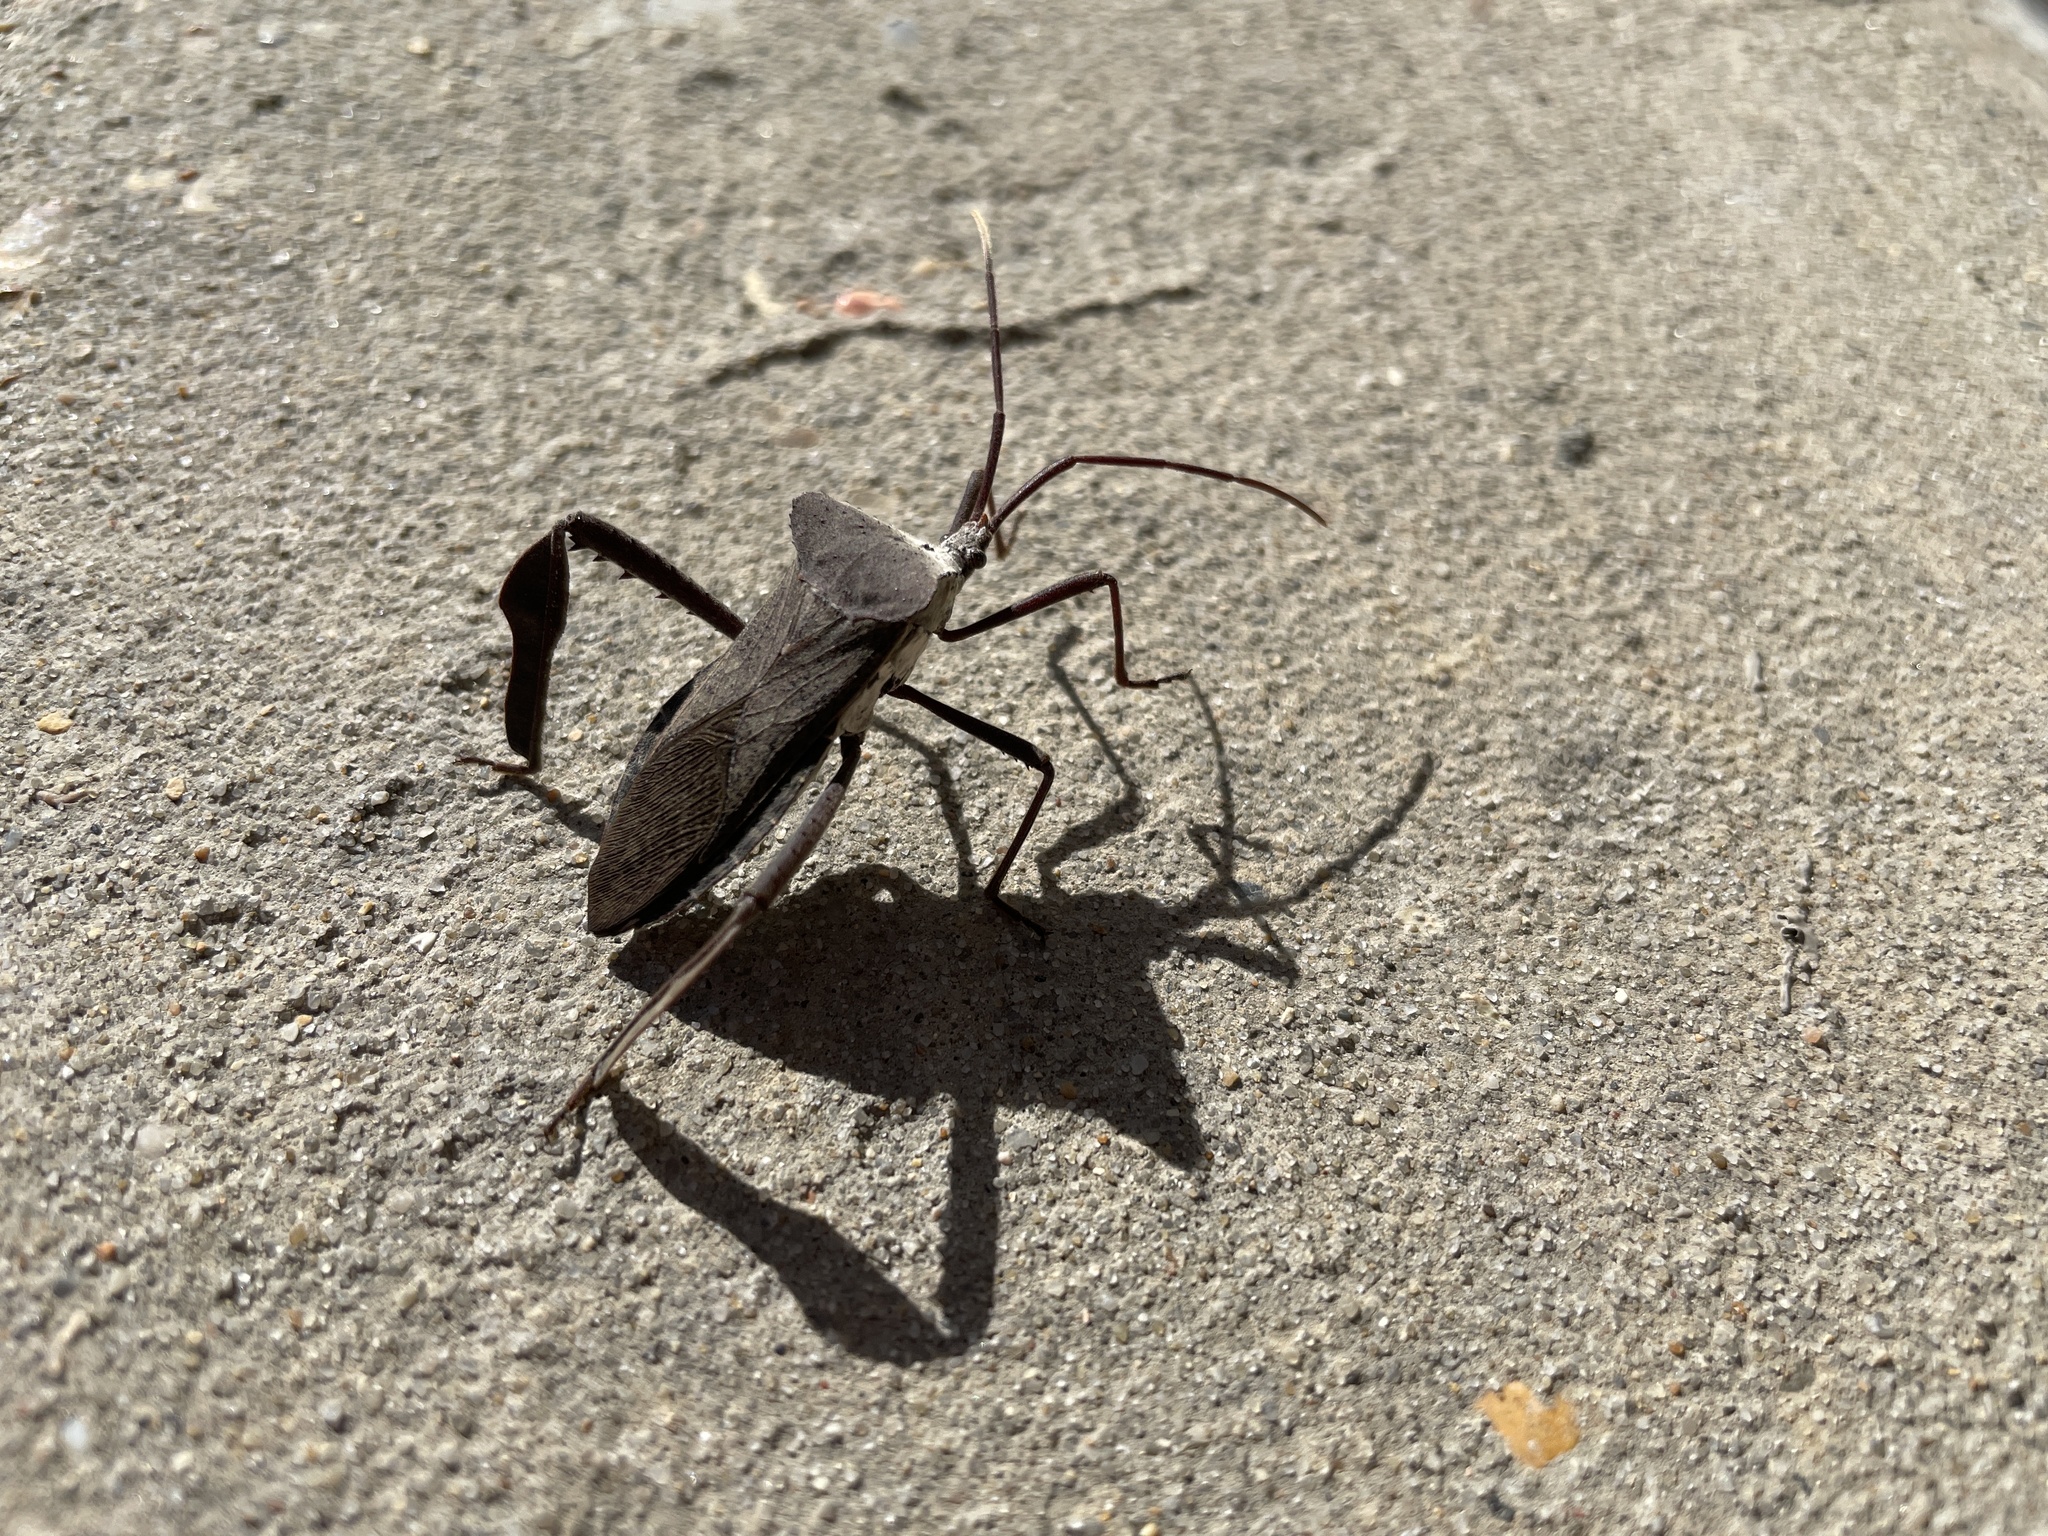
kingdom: Animalia
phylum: Arthropoda
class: Insecta
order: Hemiptera
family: Coreidae
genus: Acanthocephala
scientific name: Acanthocephala declivis
